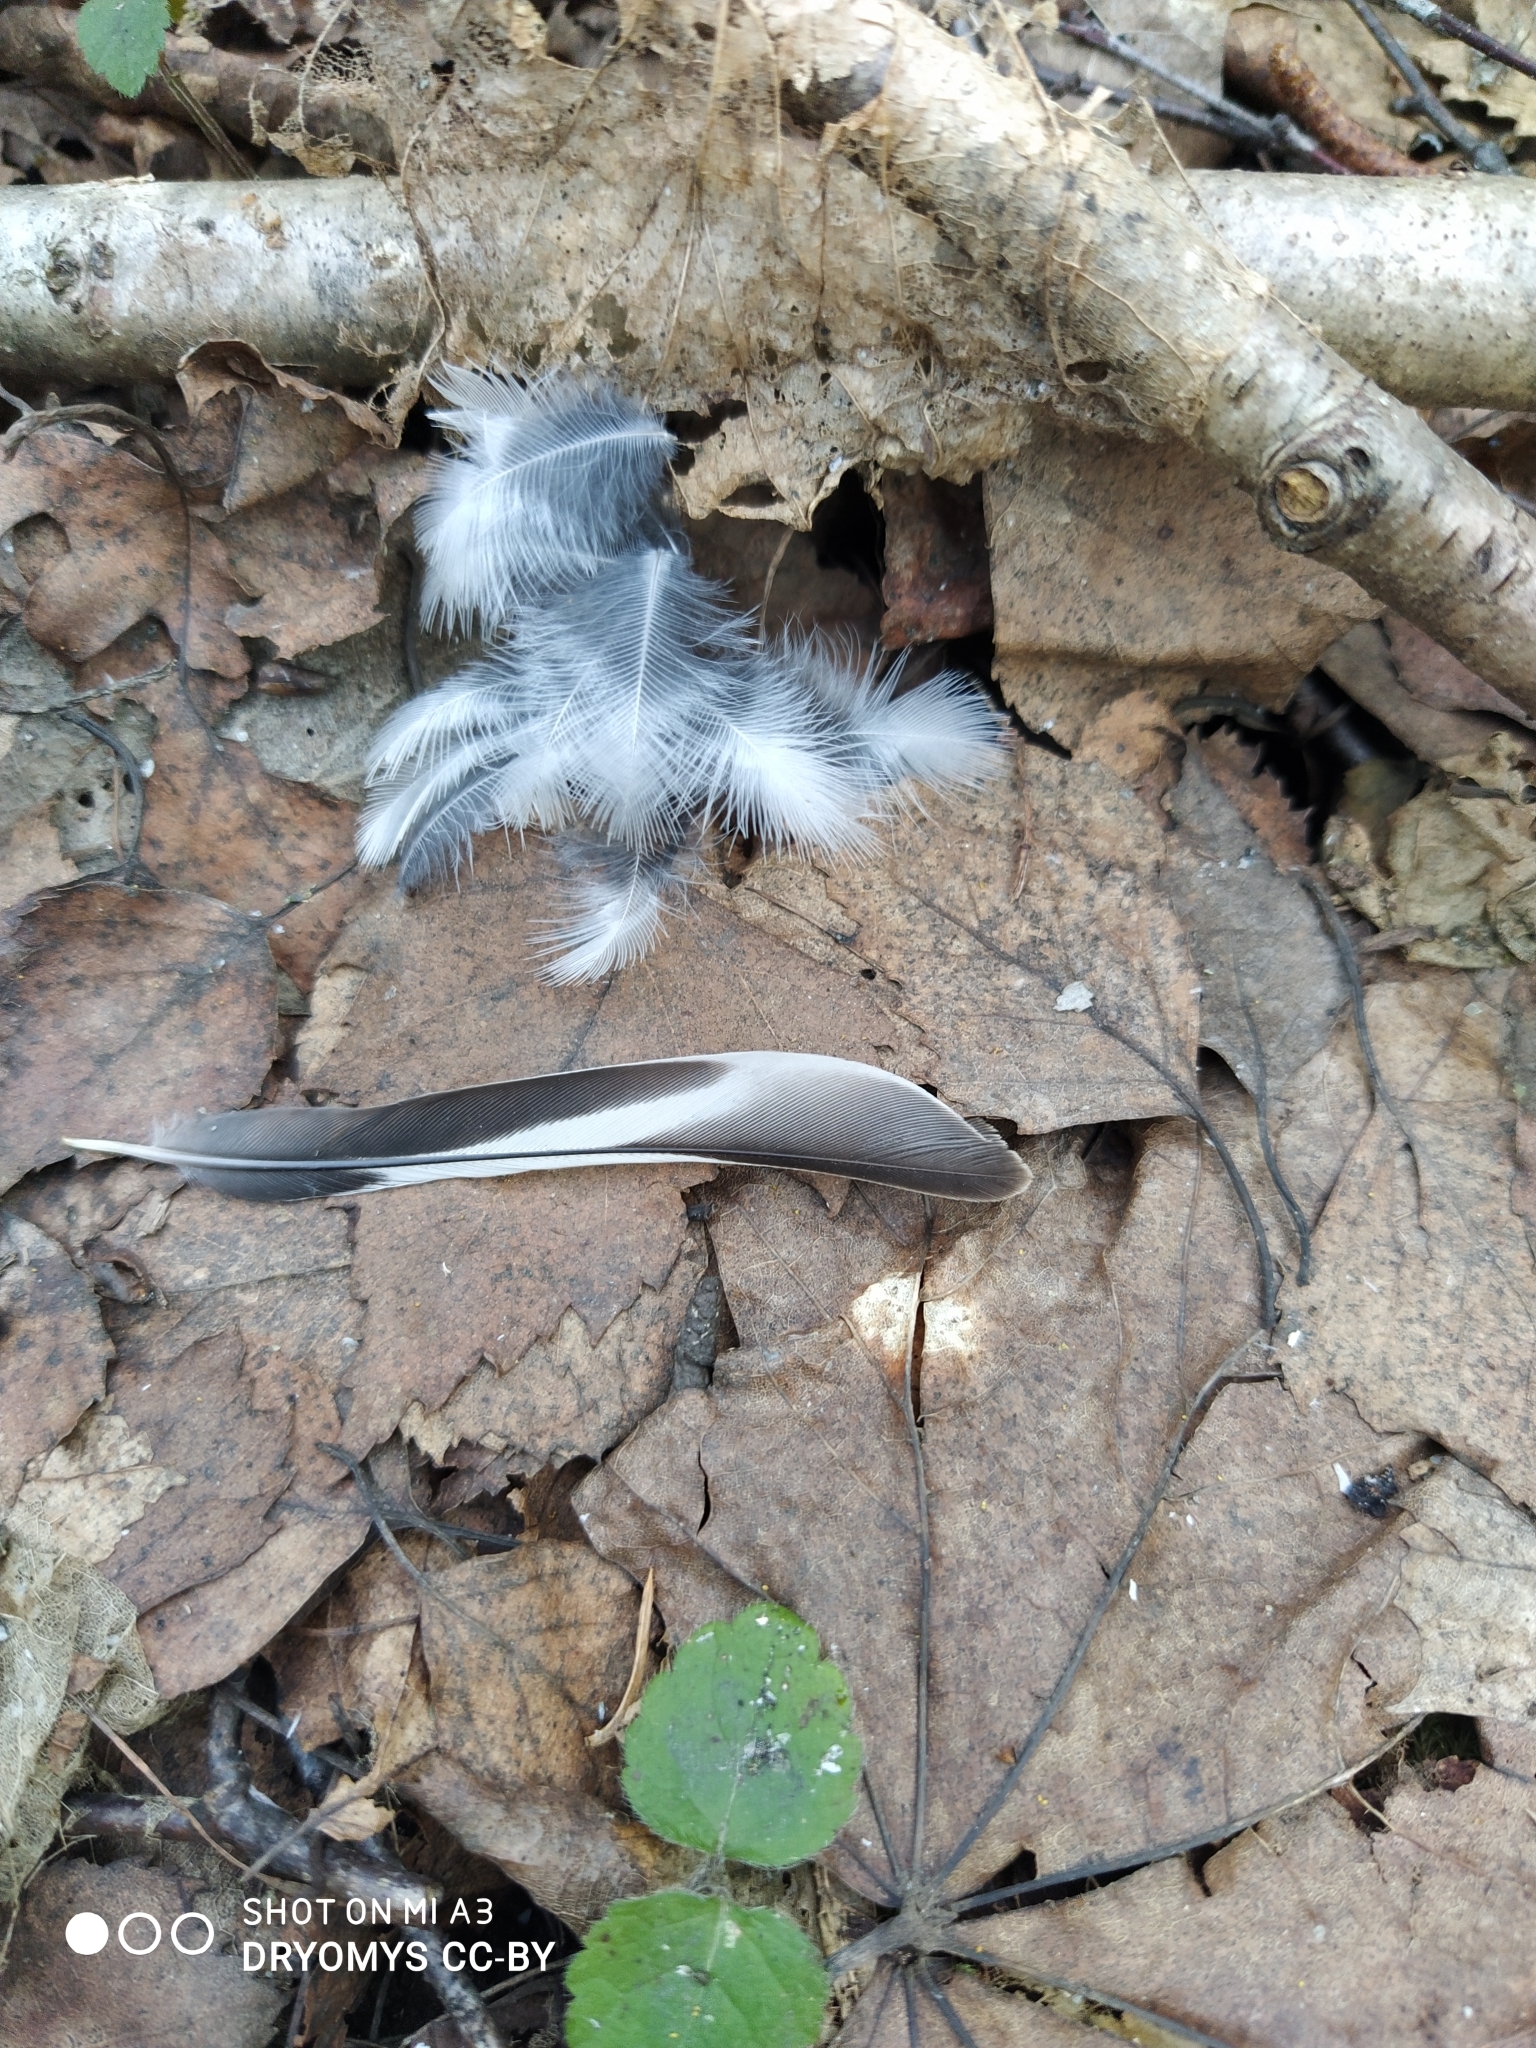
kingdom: Animalia
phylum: Chordata
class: Aves
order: Passeriformes
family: Fringillidae
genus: Fringilla
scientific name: Fringilla montifringilla
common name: Brambling
